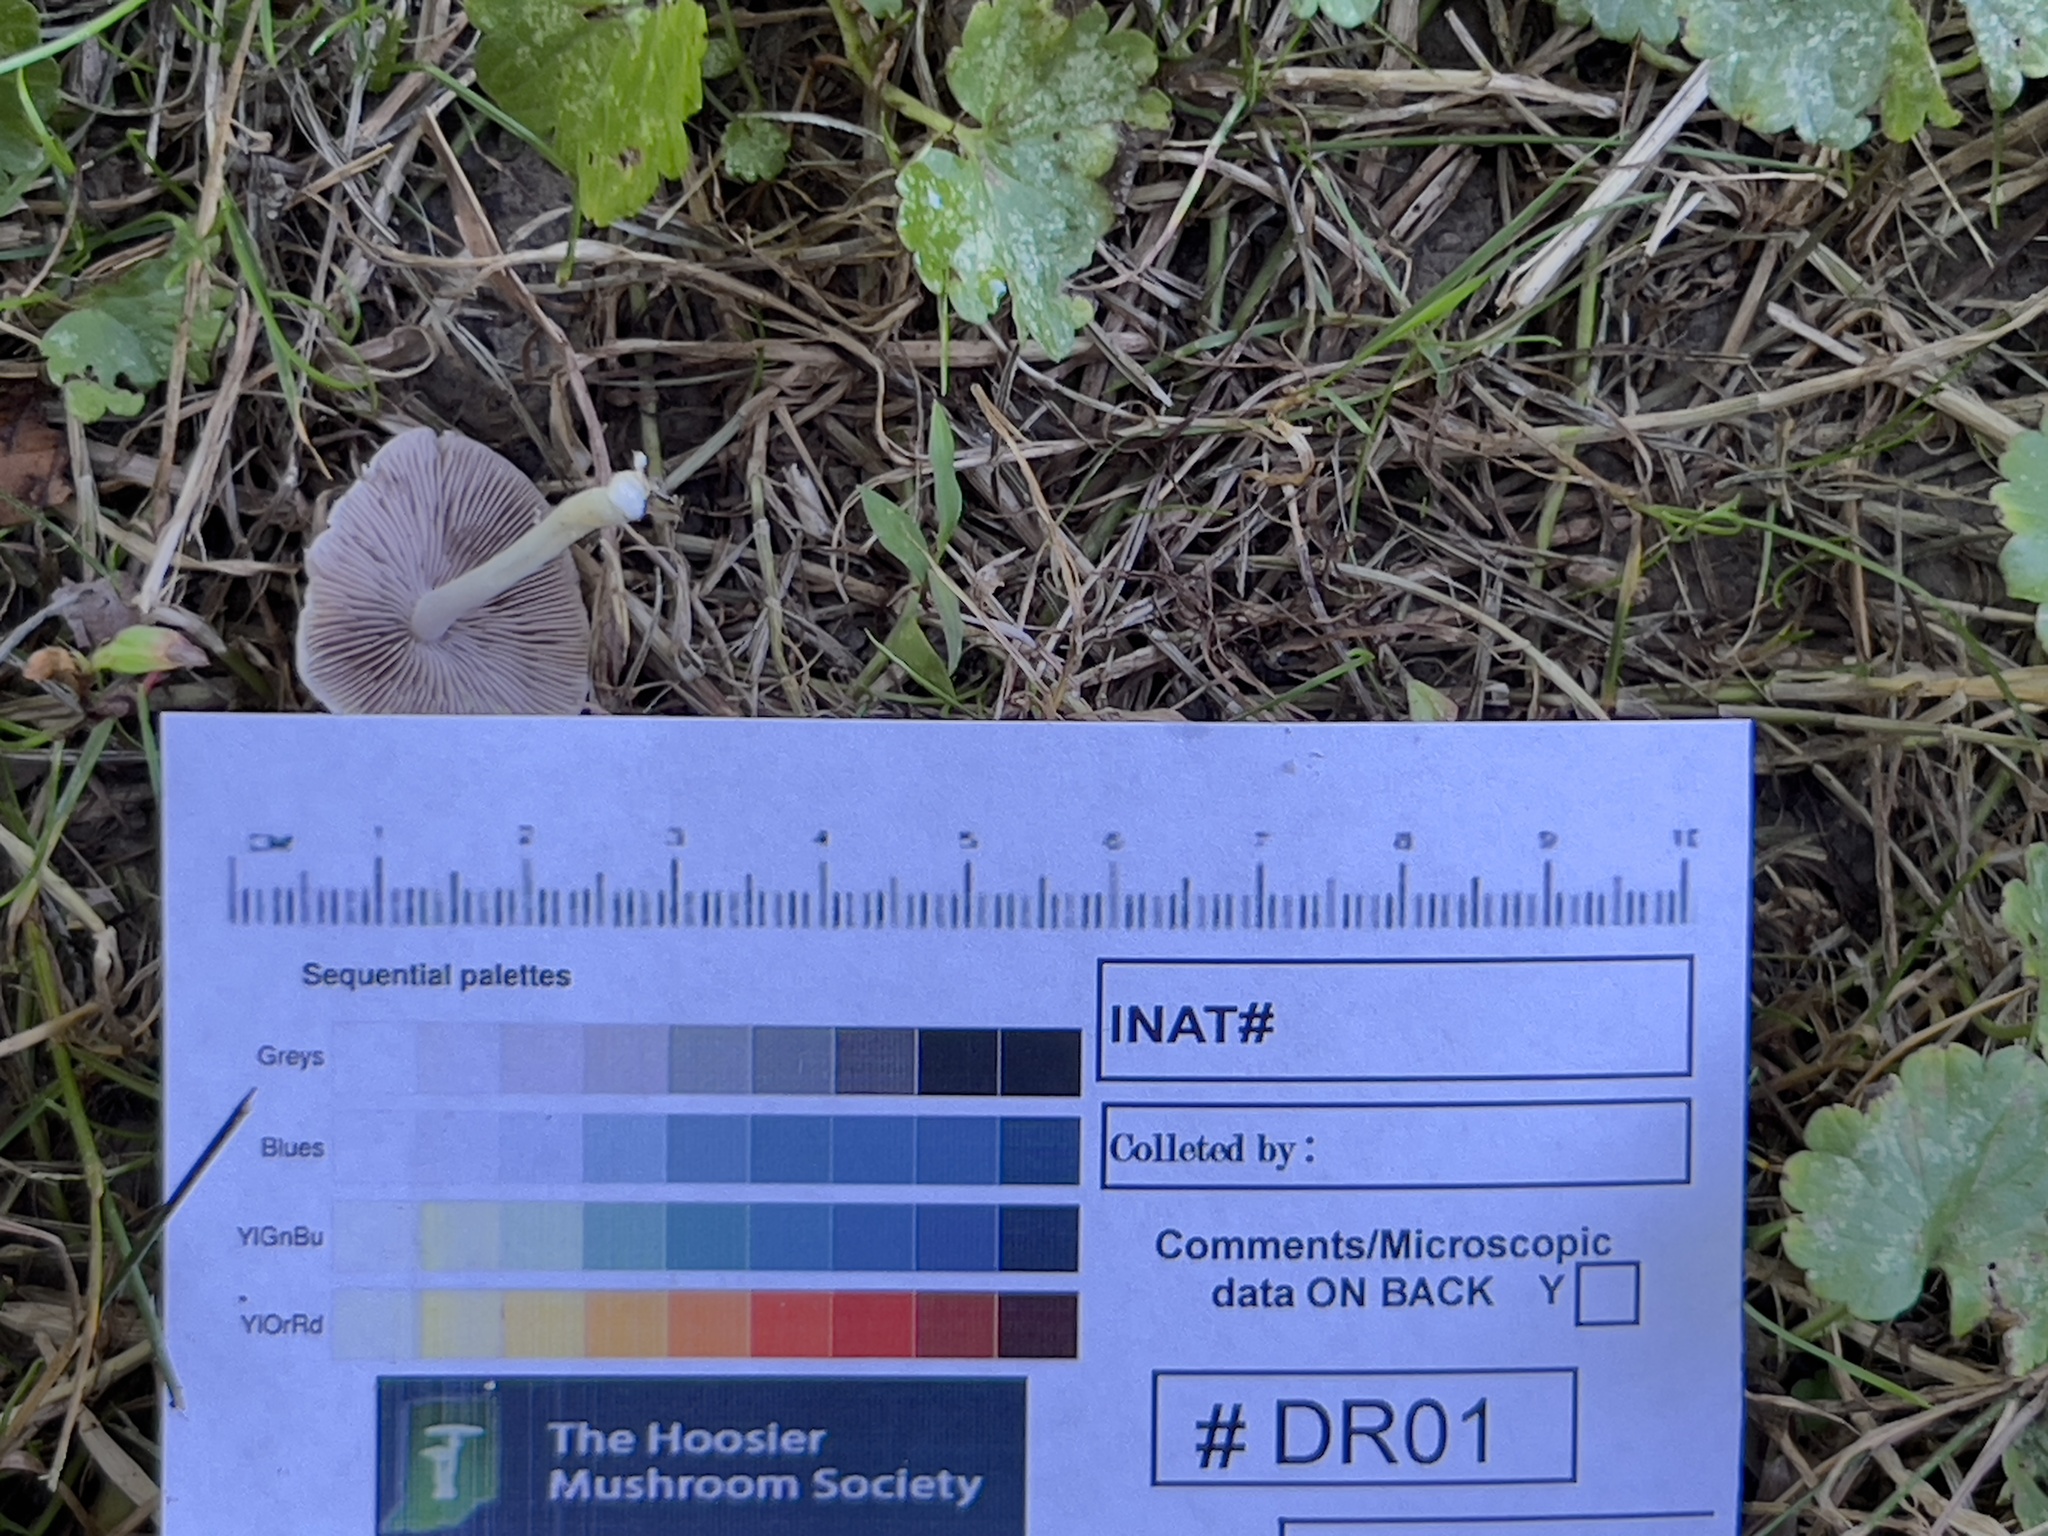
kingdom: Fungi
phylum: Basidiomycota
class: Agaricomycetes
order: Agaricales
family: Psathyrellaceae
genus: Candolleomyces
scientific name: Candolleomyces candolleanus
